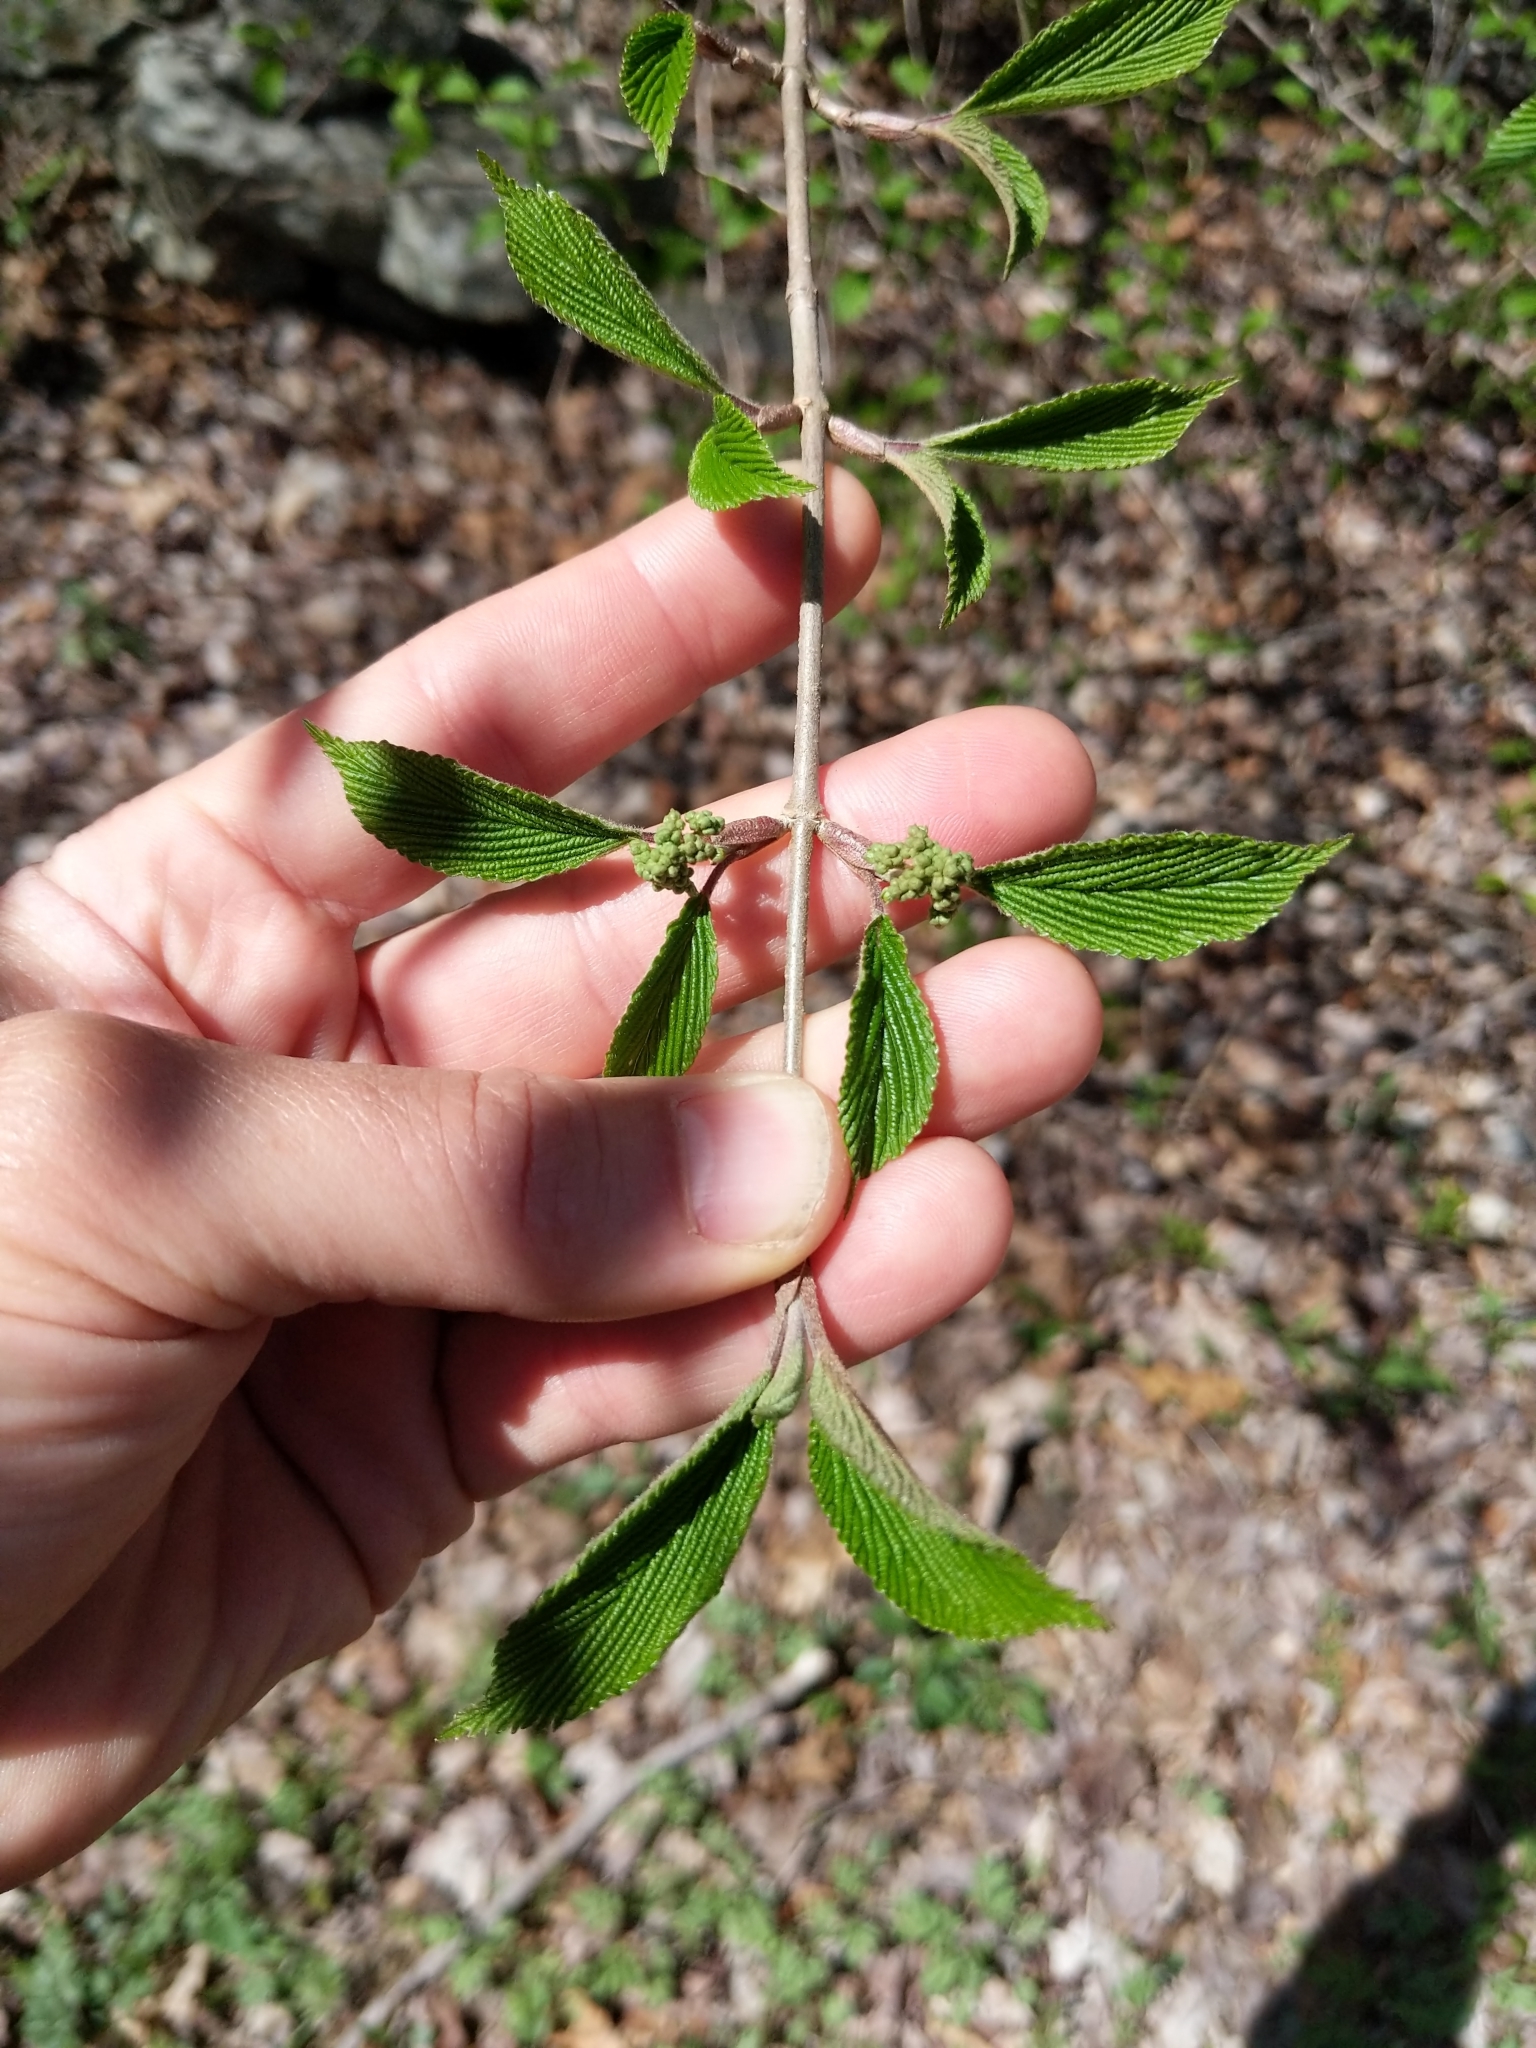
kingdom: Plantae
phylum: Tracheophyta
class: Magnoliopsida
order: Dipsacales
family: Viburnaceae
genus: Viburnum
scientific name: Viburnum plicatum
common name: Japanese snowball
